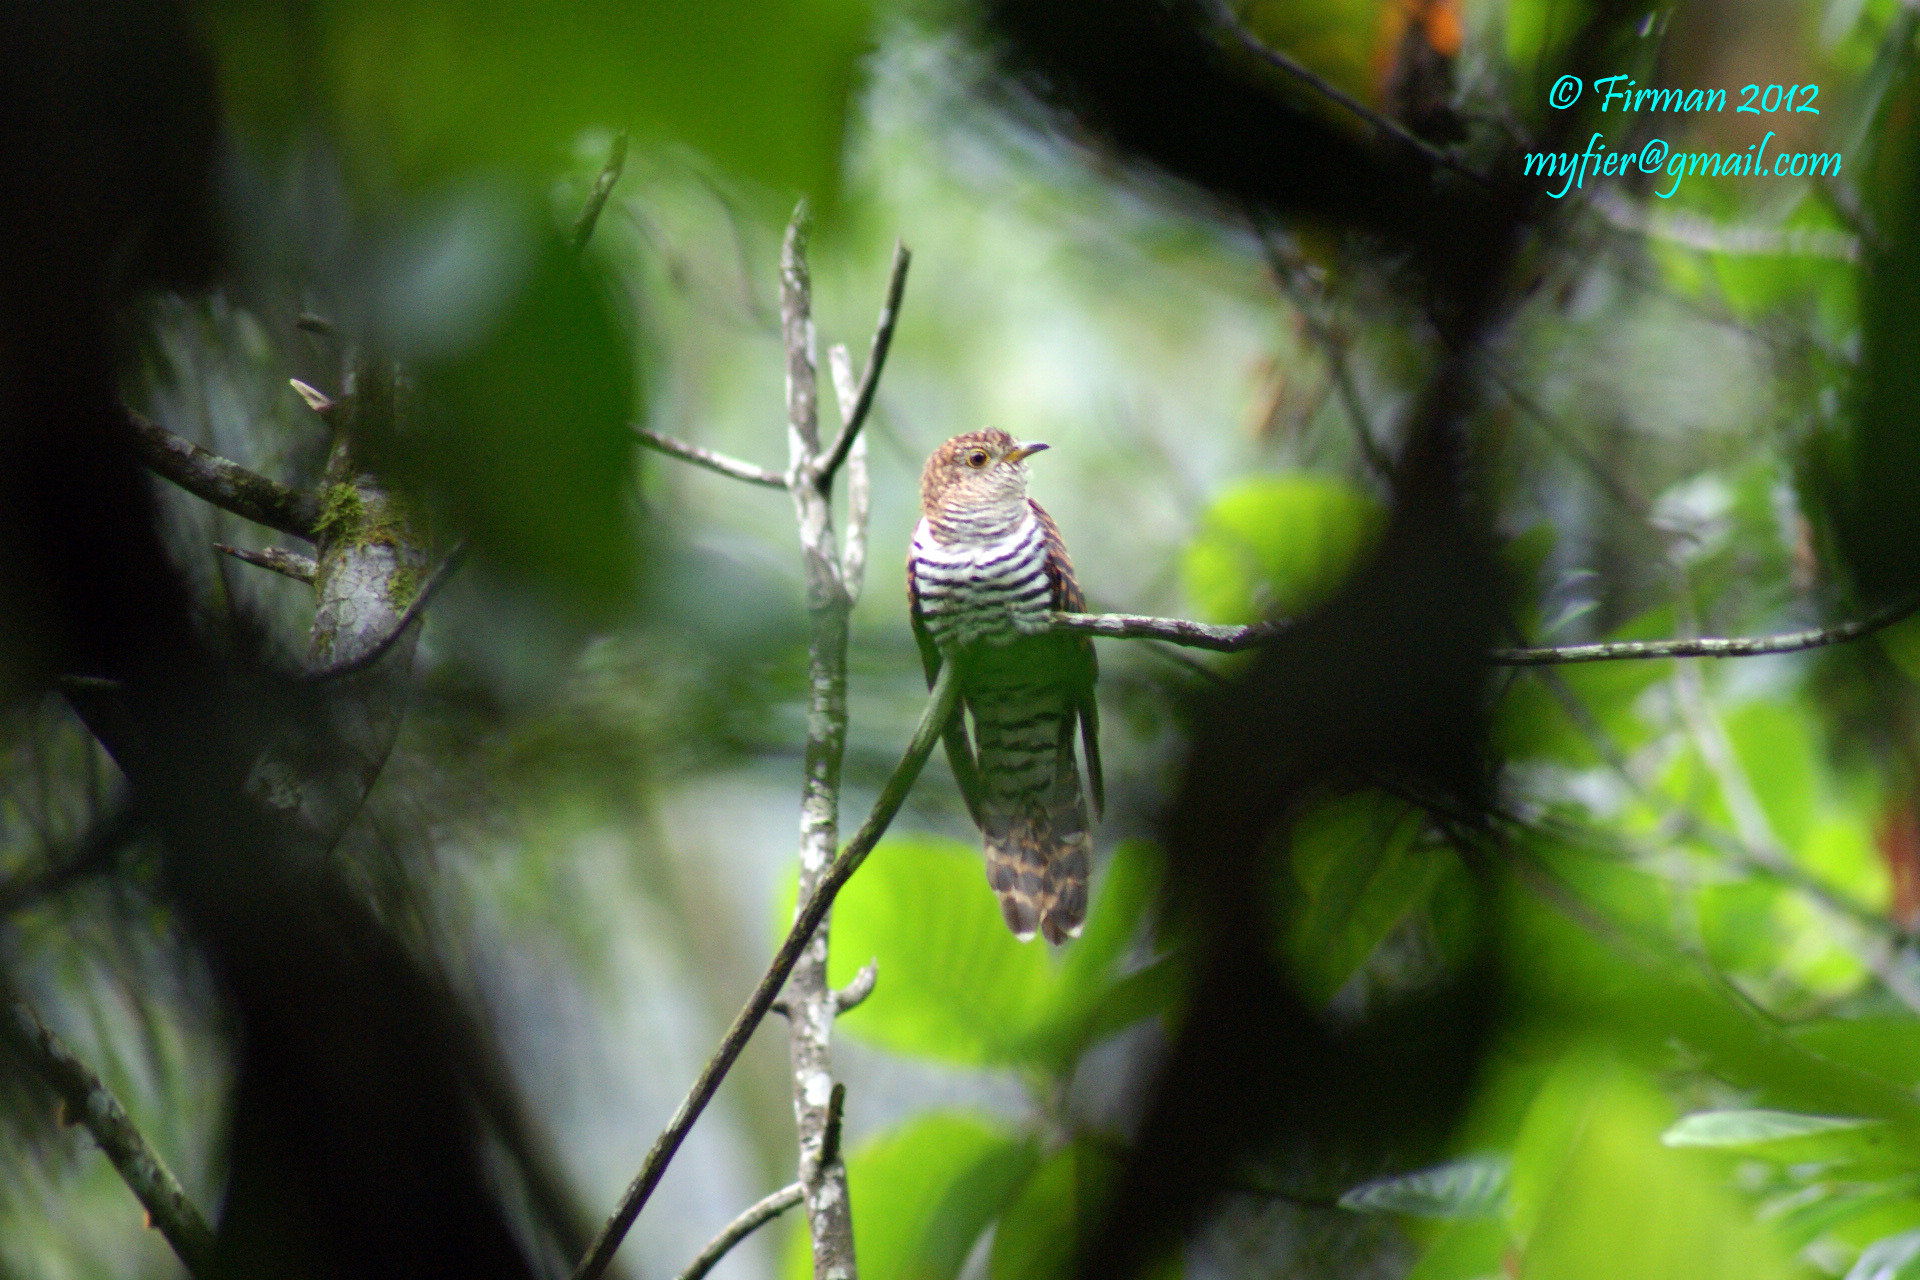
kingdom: Animalia
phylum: Chordata
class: Aves
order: Cuculiformes
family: Cuculidae
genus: Cuculus
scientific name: Cuculus
